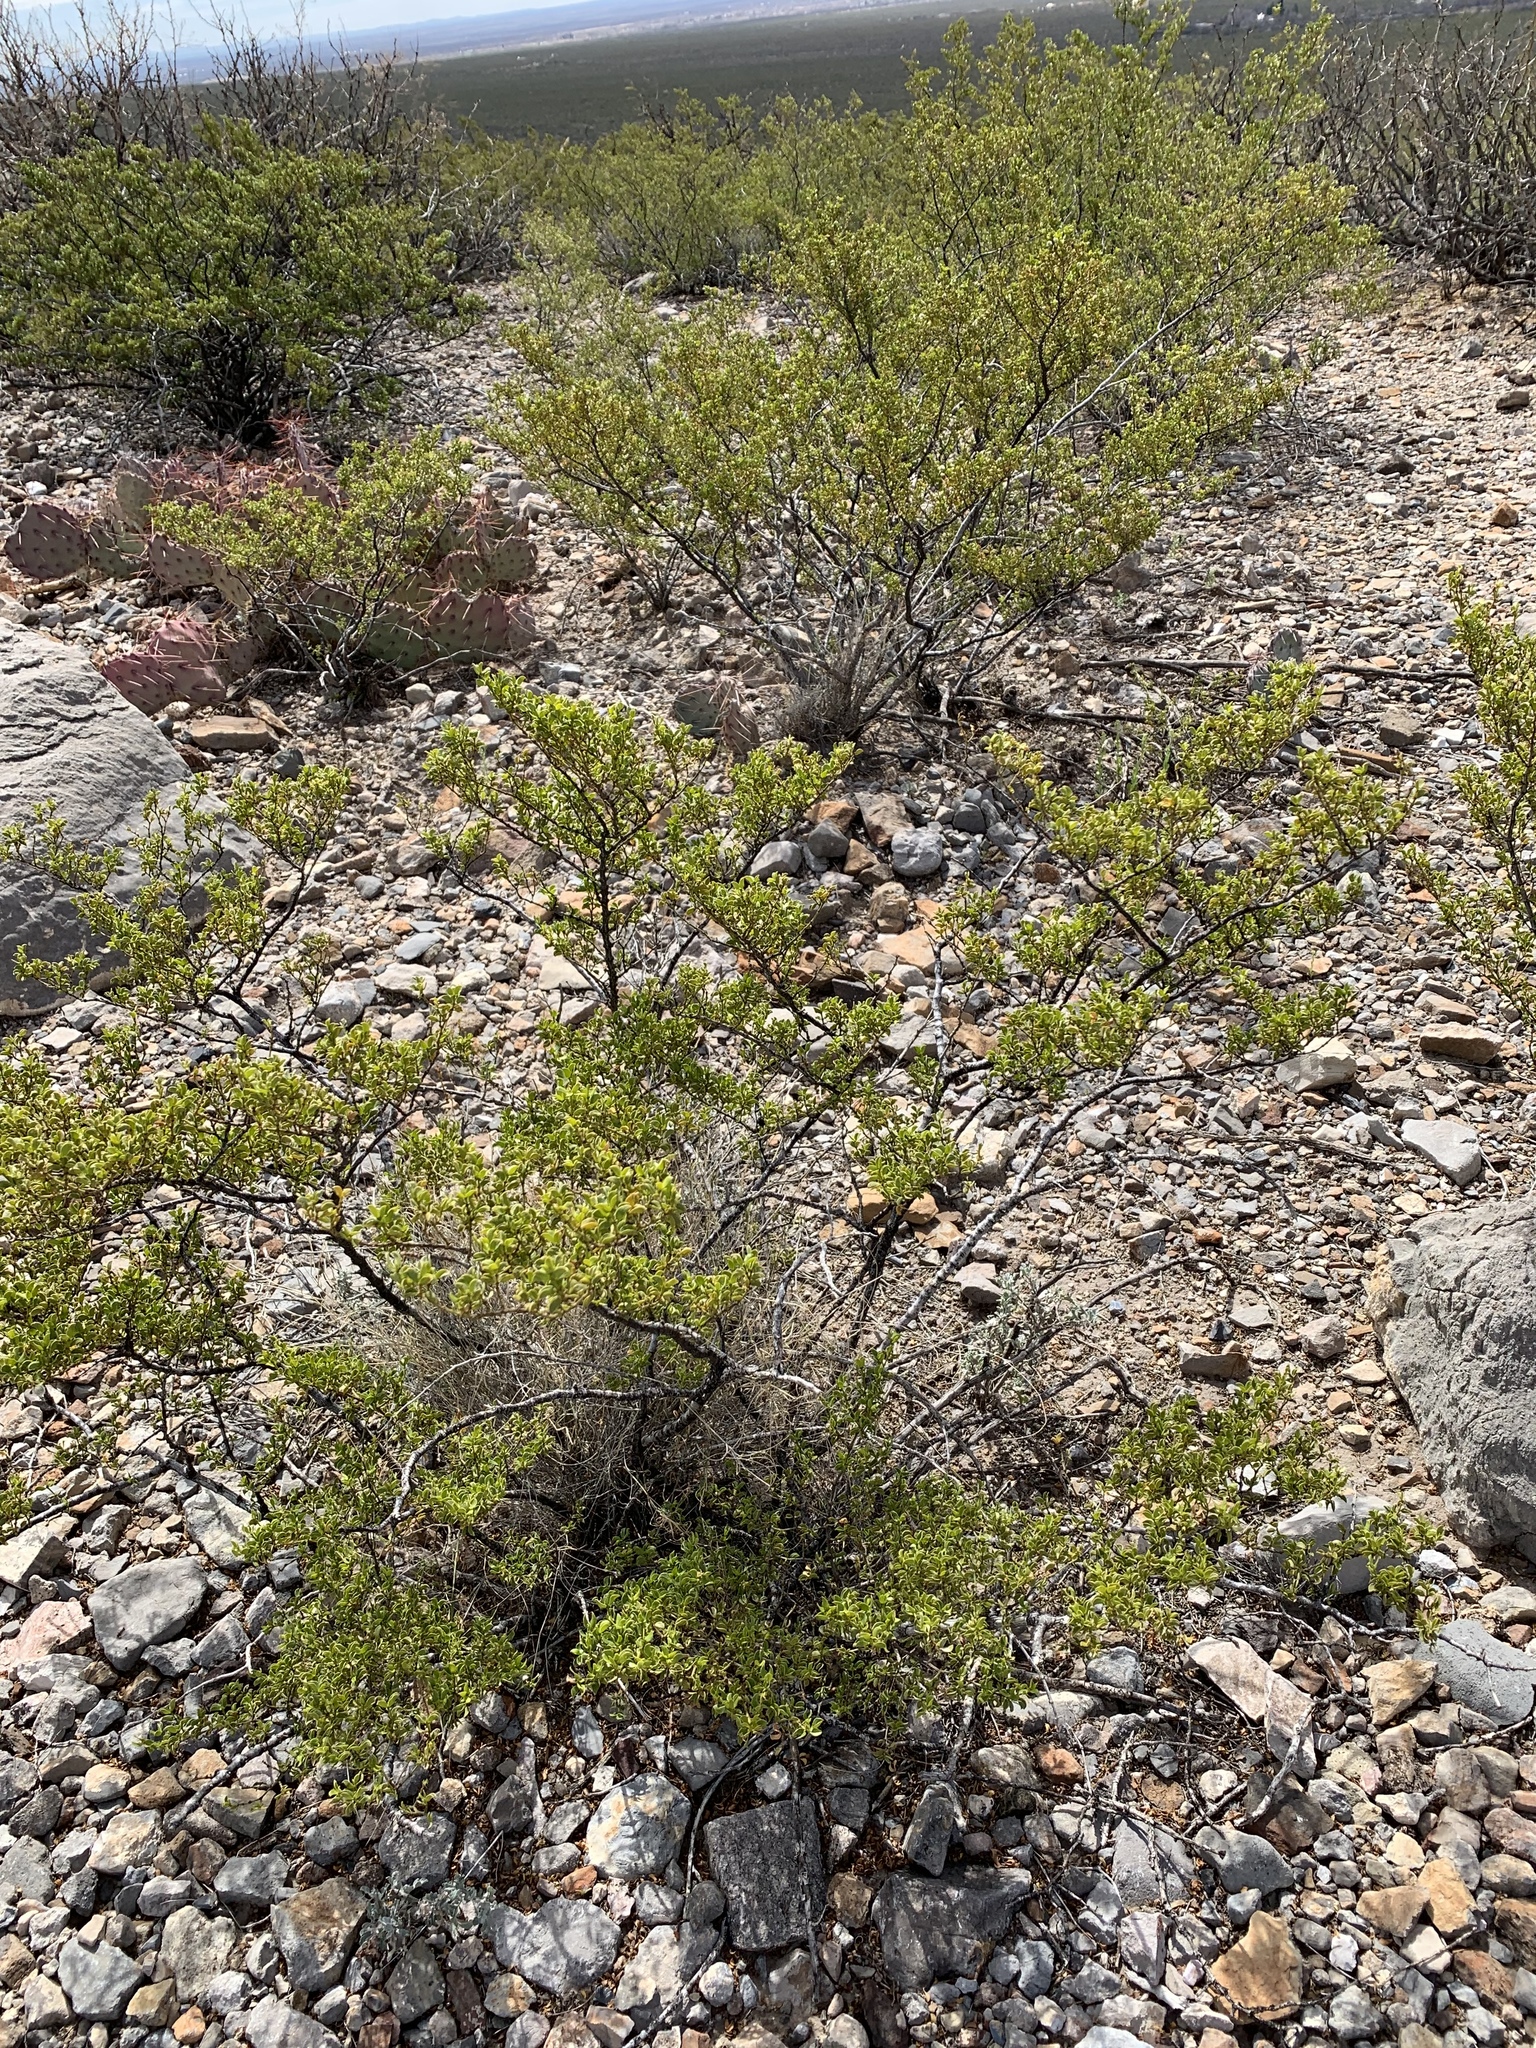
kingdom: Plantae
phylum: Tracheophyta
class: Magnoliopsida
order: Zygophyllales
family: Zygophyllaceae
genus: Larrea
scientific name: Larrea tridentata
